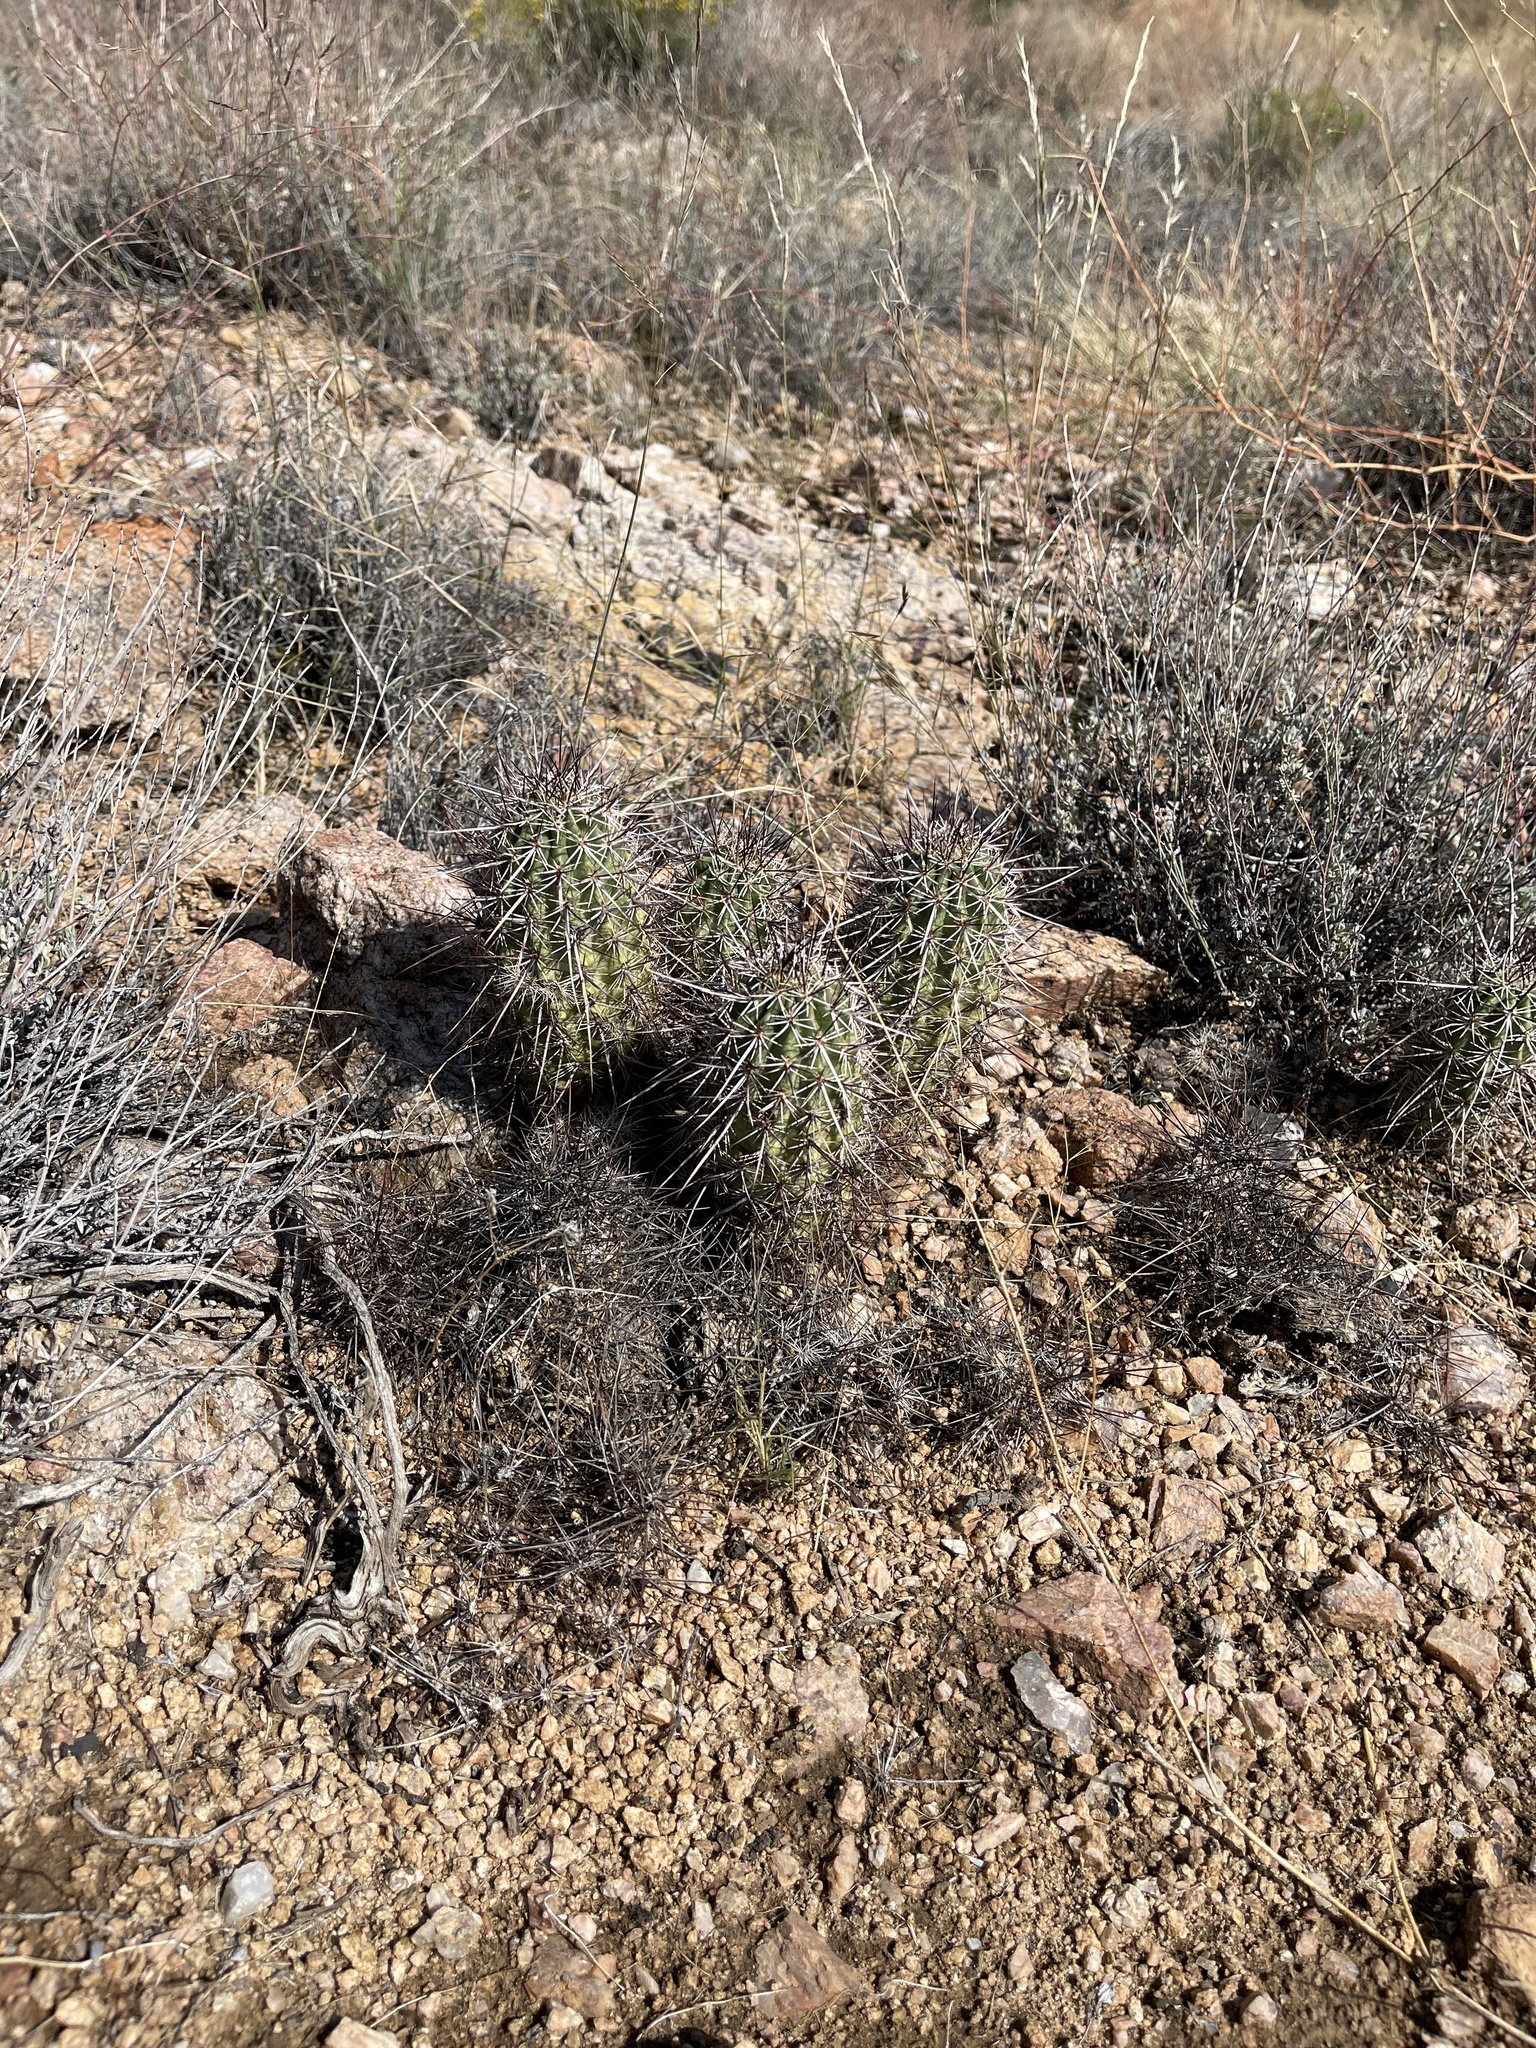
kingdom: Plantae
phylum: Tracheophyta
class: Magnoliopsida
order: Caryophyllales
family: Cactaceae
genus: Echinocereus
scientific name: Echinocereus engelmannii
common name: Engelmann's hedgehog cactus
